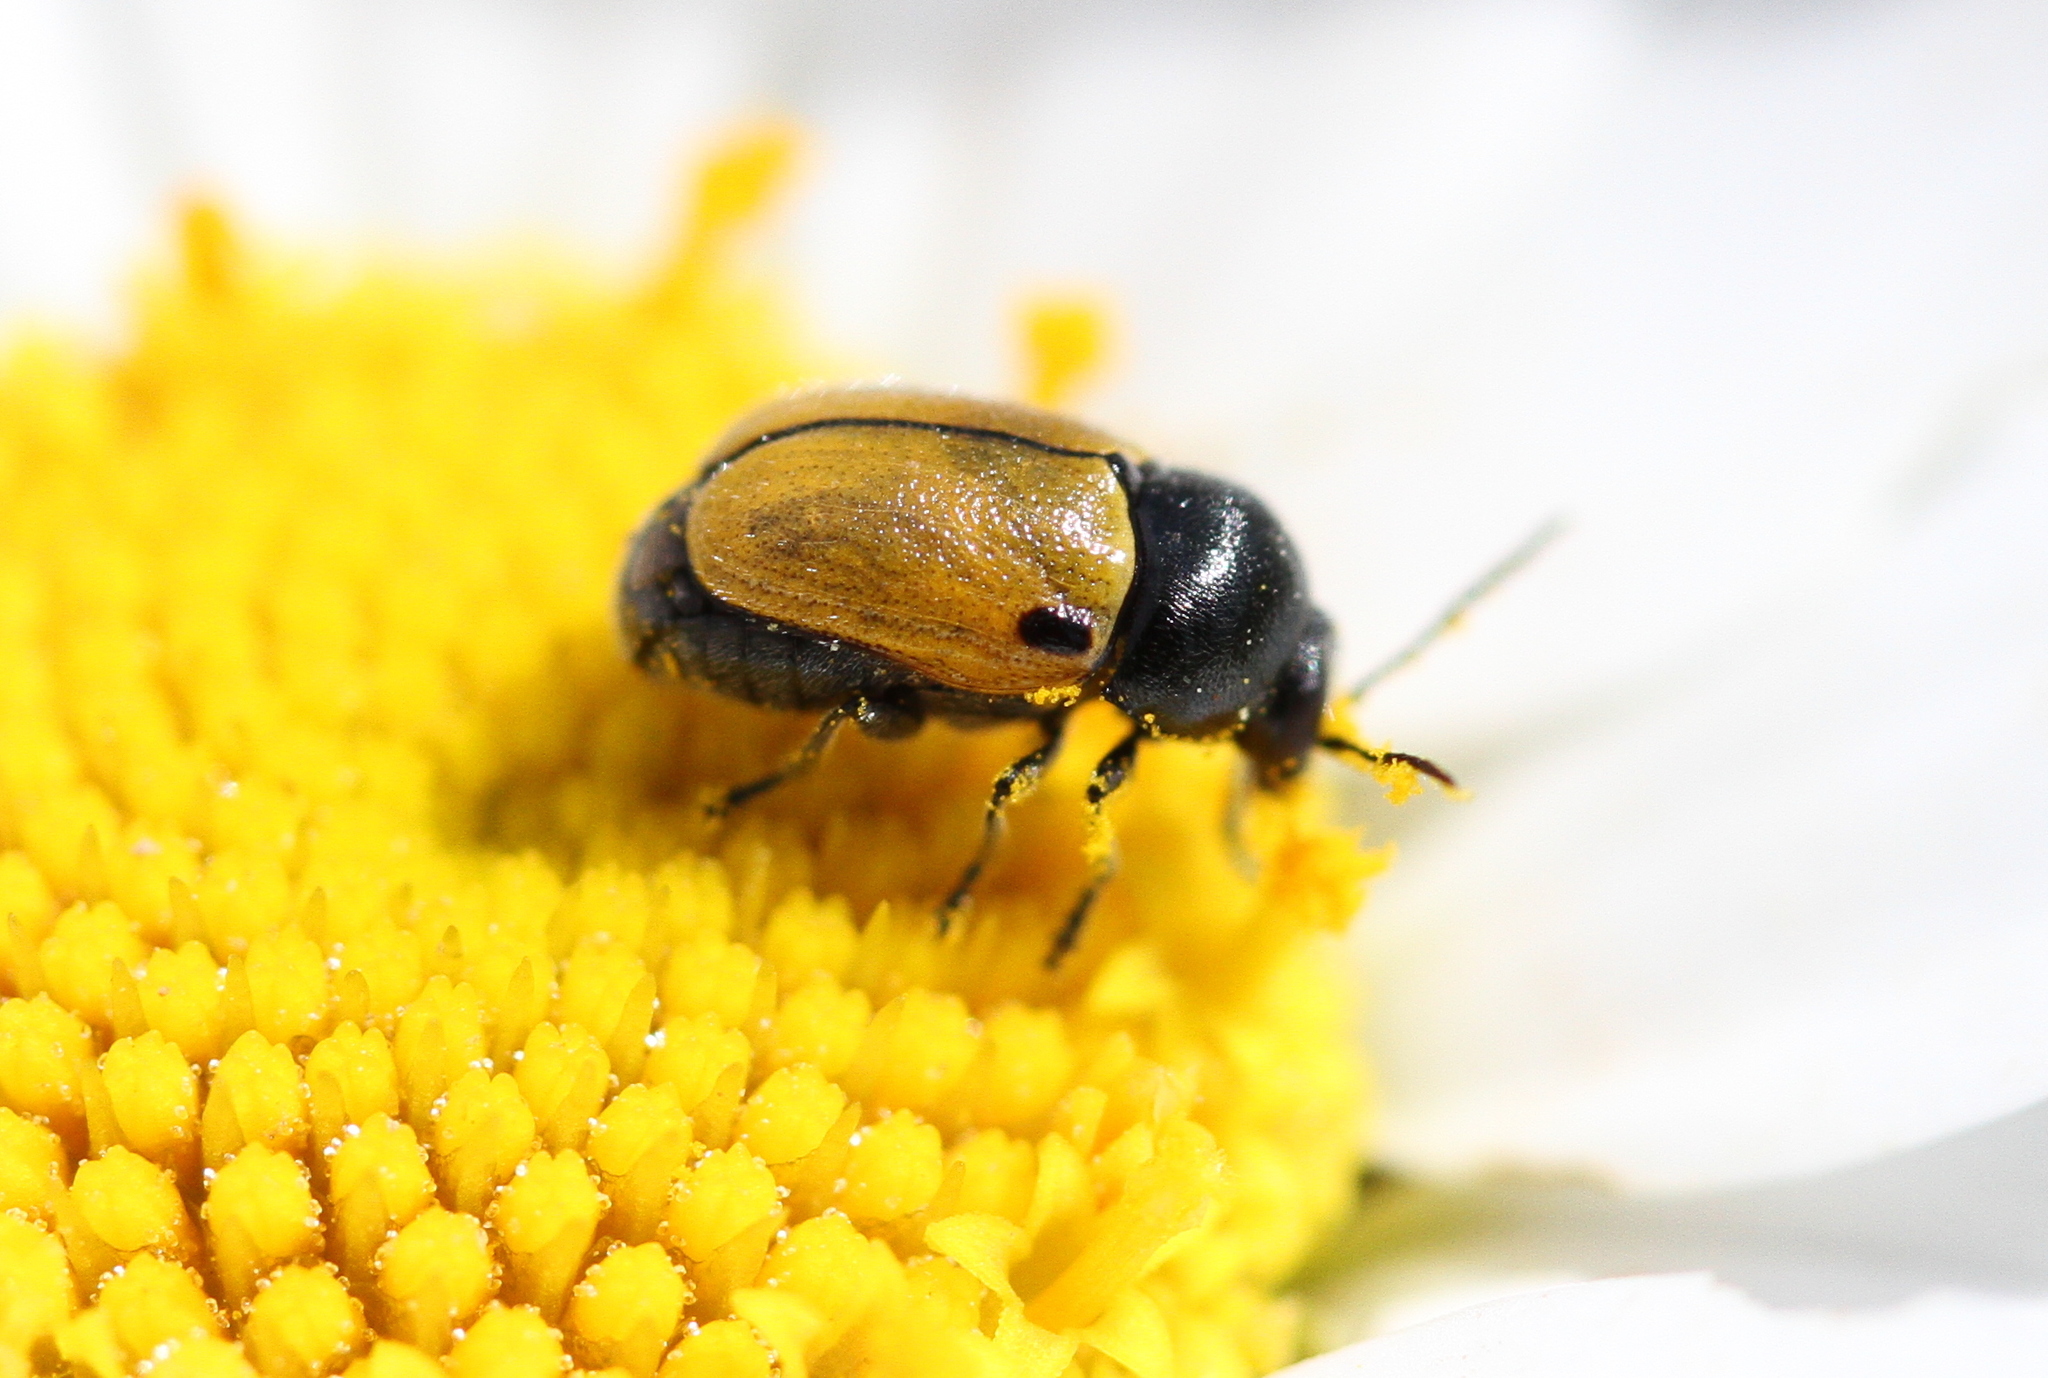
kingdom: Animalia
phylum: Arthropoda
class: Insecta
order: Coleoptera
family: Chrysomelidae
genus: Cryptocephalus
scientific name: Cryptocephalus rugicollis
